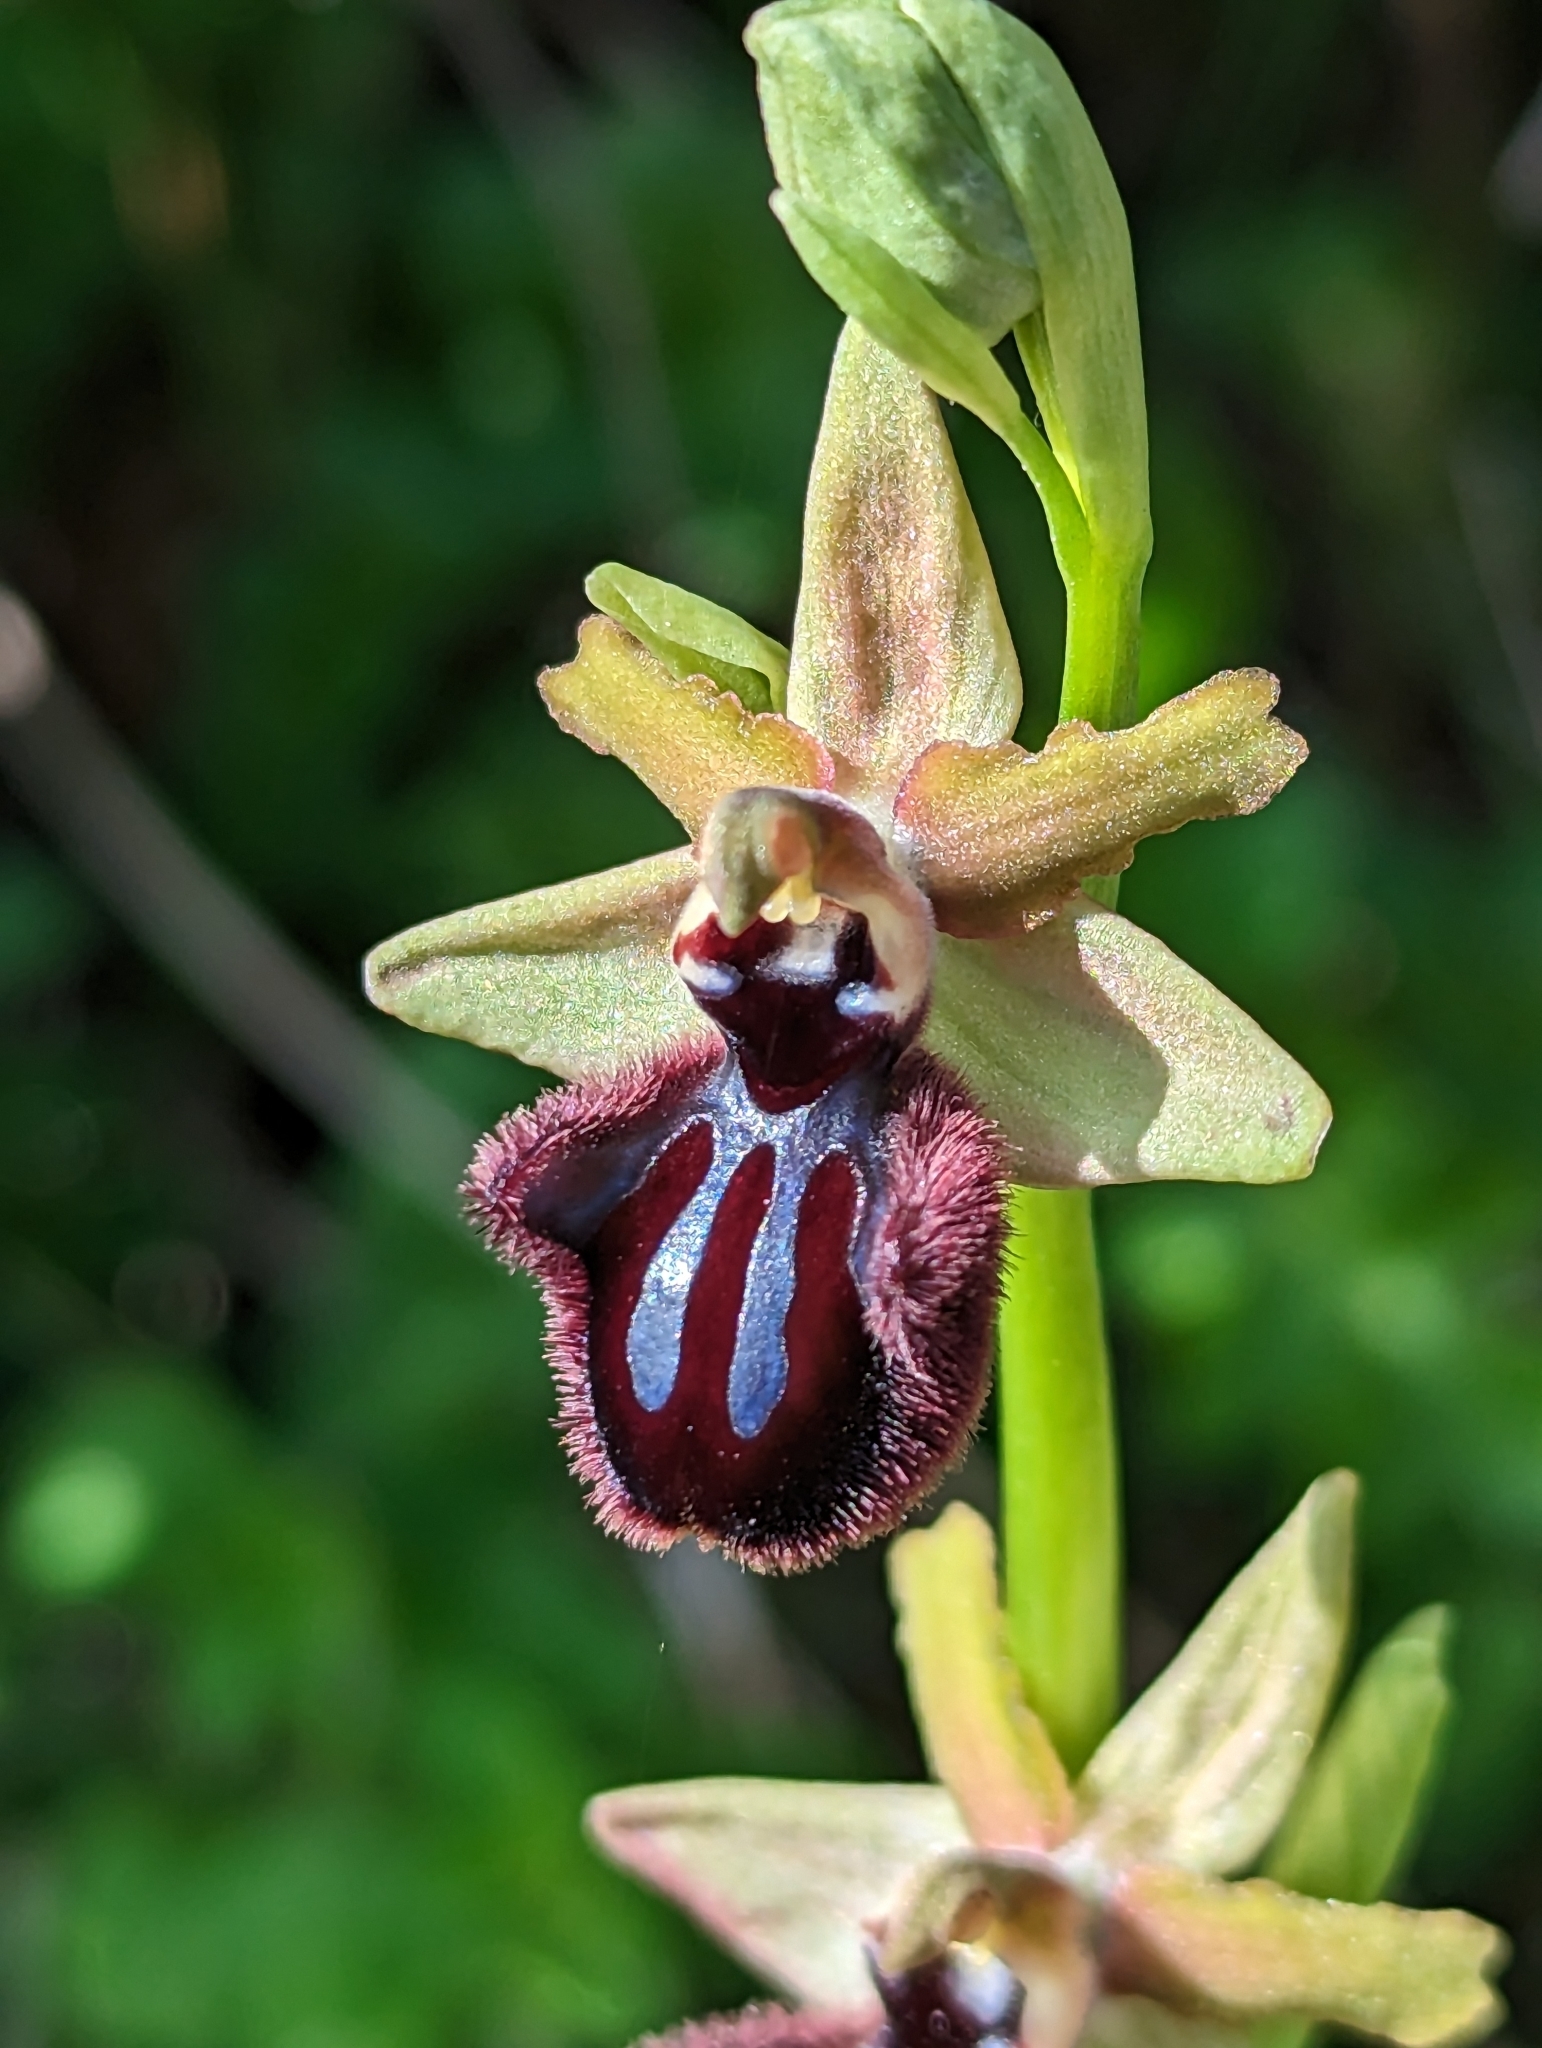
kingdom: Plantae
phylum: Tracheophyta
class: Liliopsida
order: Asparagales
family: Orchidaceae
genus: Ophrys
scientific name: Ophrys sphegodes
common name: Early spider-orchid
